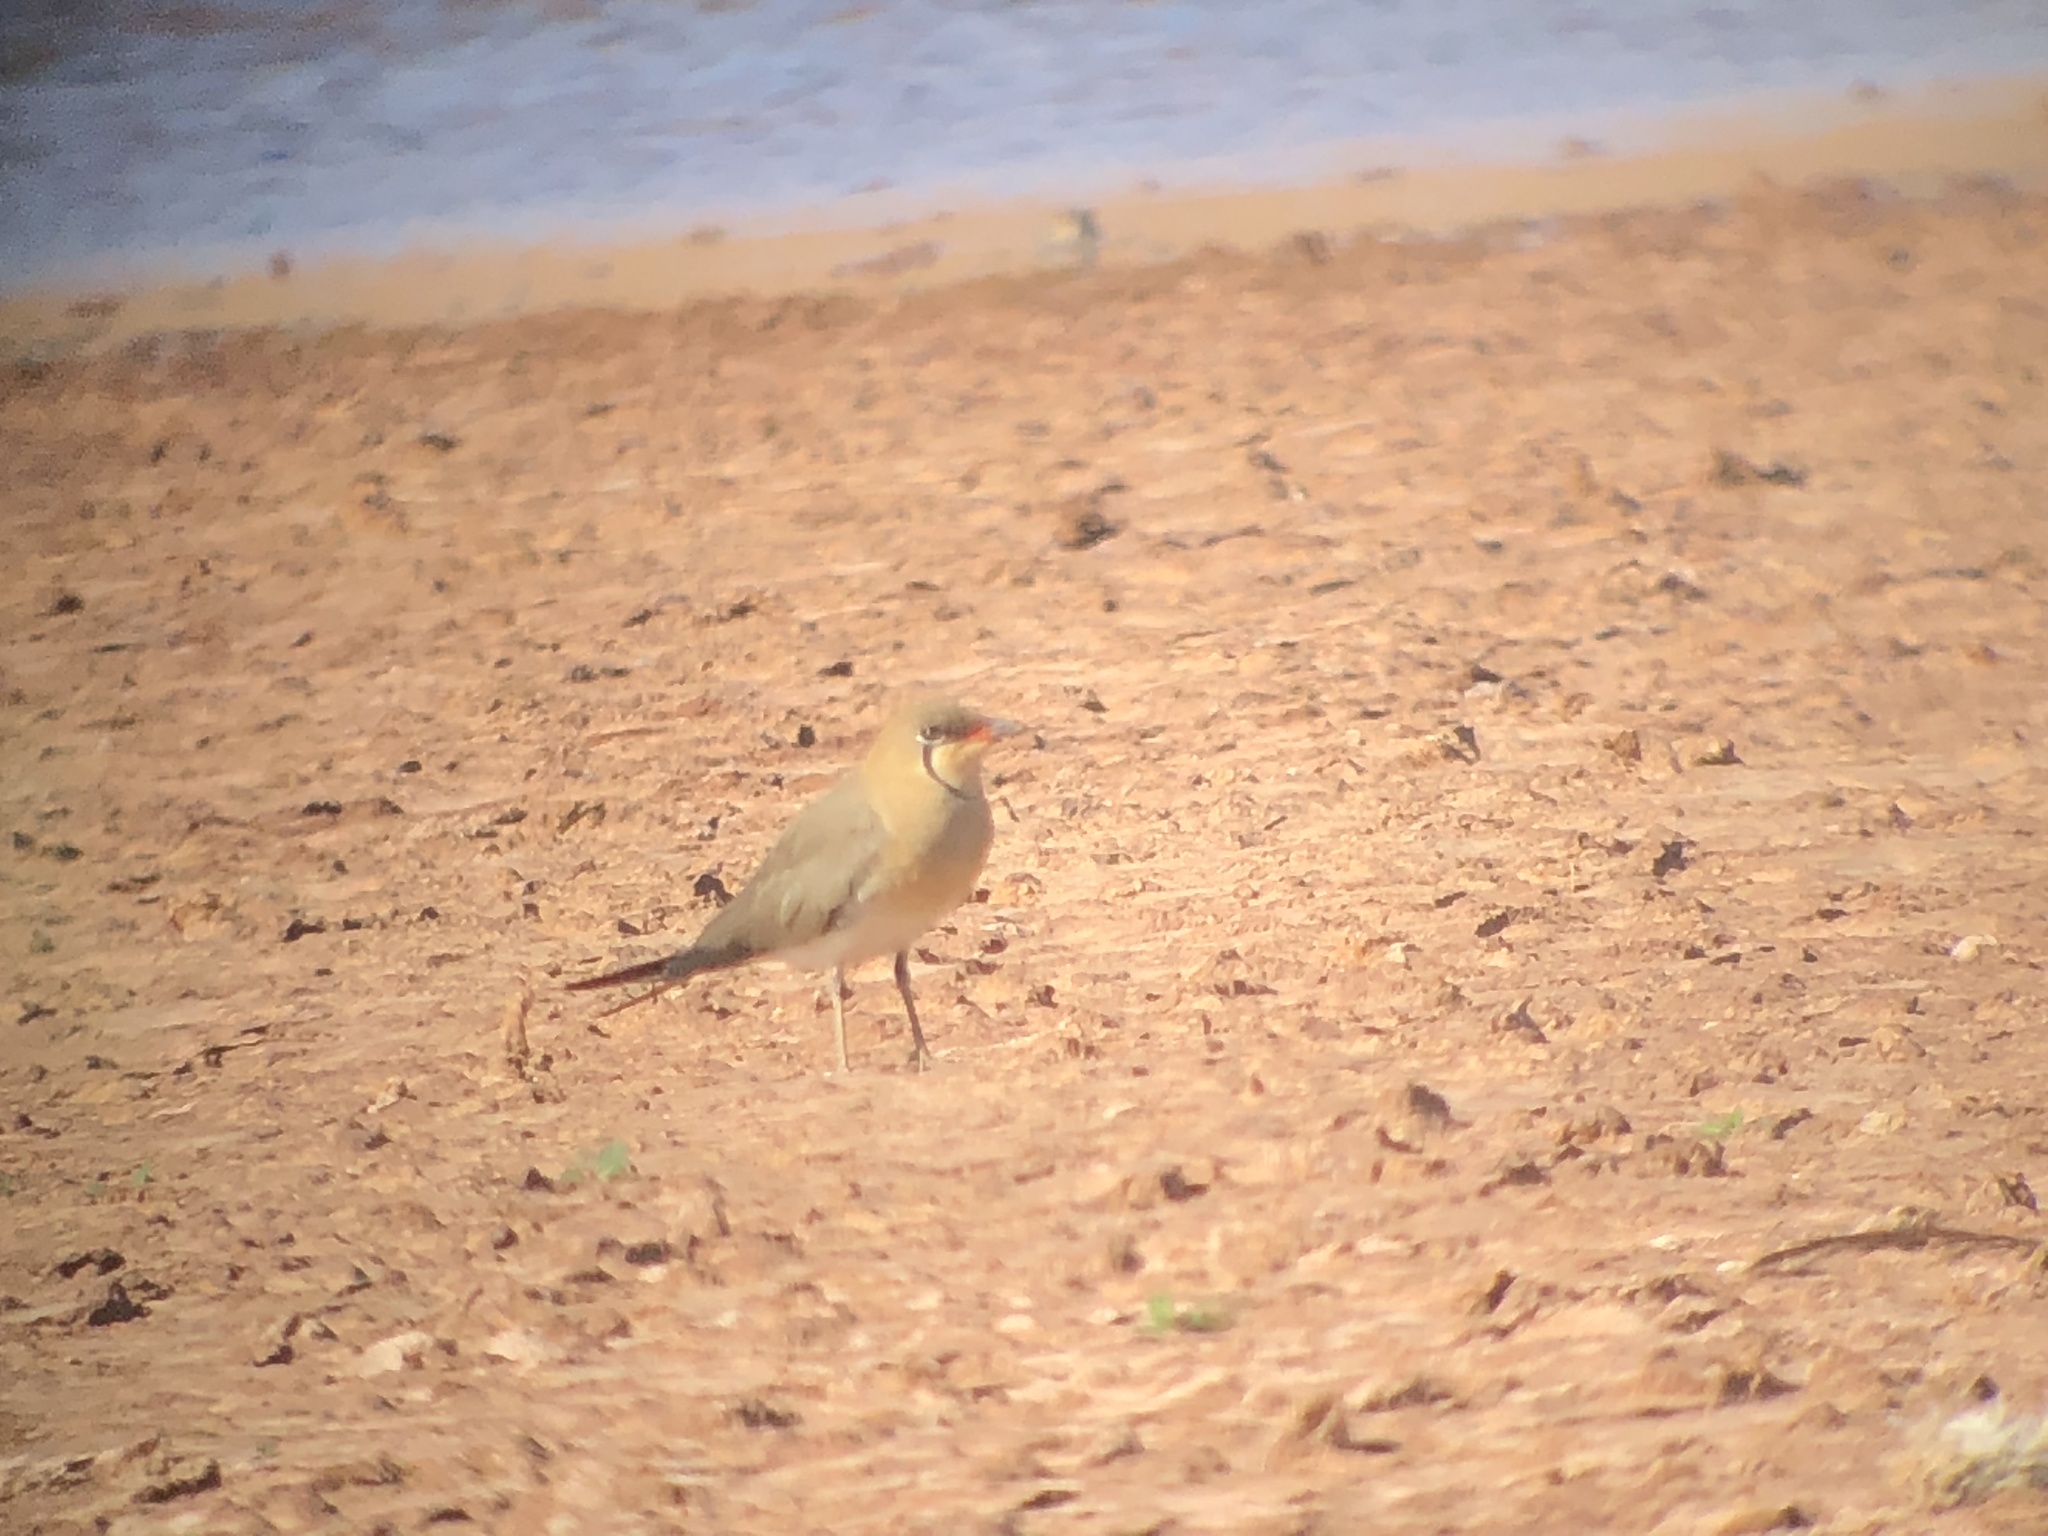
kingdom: Animalia
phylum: Chordata
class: Aves
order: Charadriiformes
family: Glareolidae
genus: Glareola
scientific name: Glareola pratincola
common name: Collared pratincole
